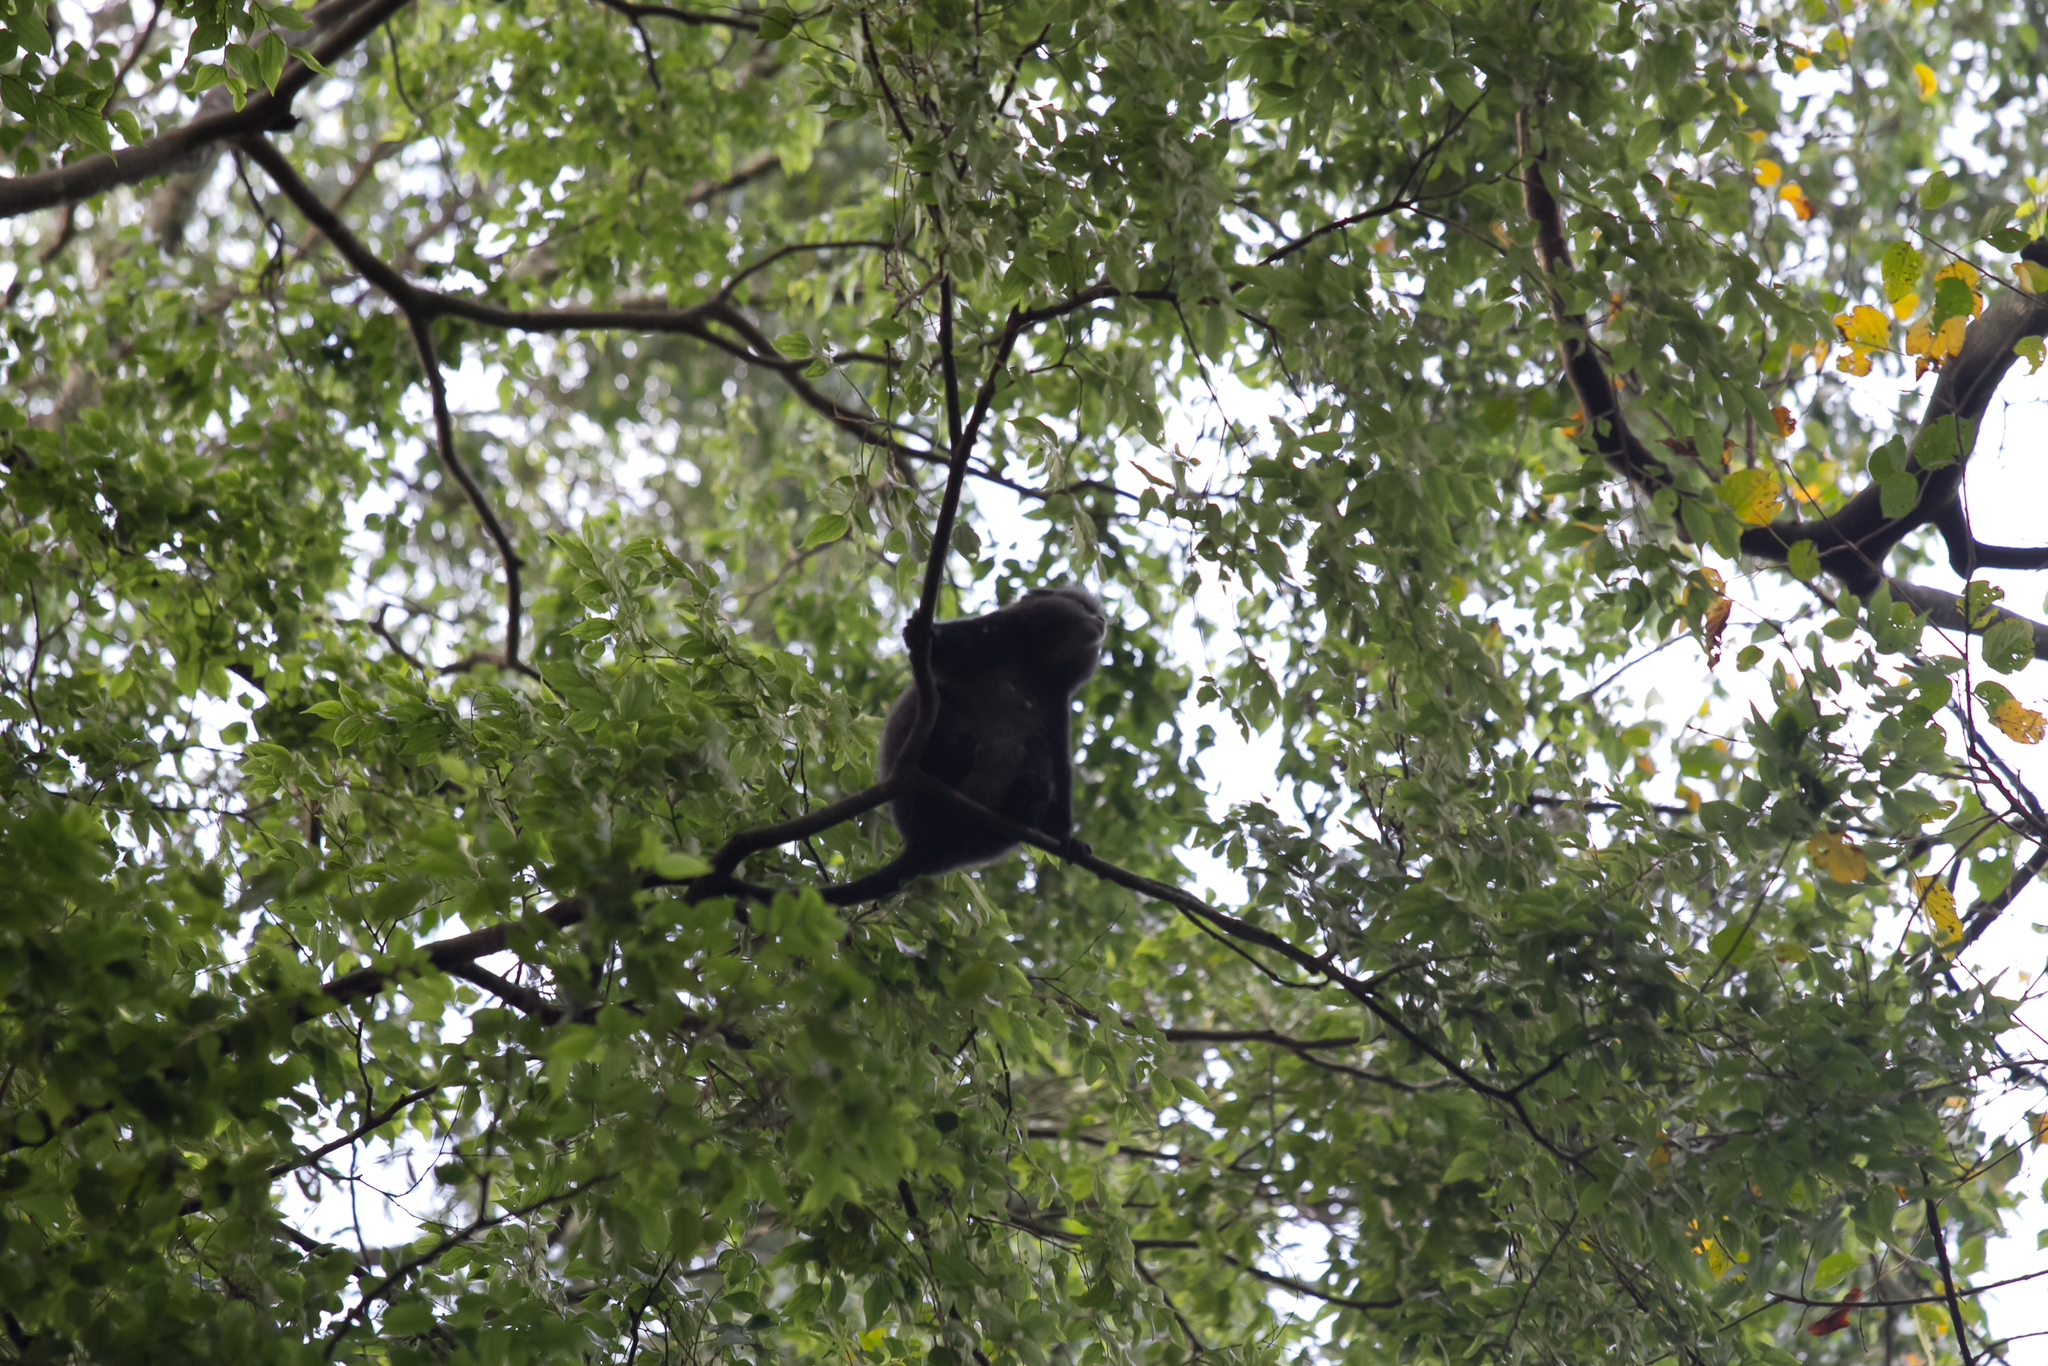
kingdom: Animalia
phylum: Chordata
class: Mammalia
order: Primates
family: Cercopithecidae
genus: Cercopithecus
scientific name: Cercopithecus mitis
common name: Blue monkey
